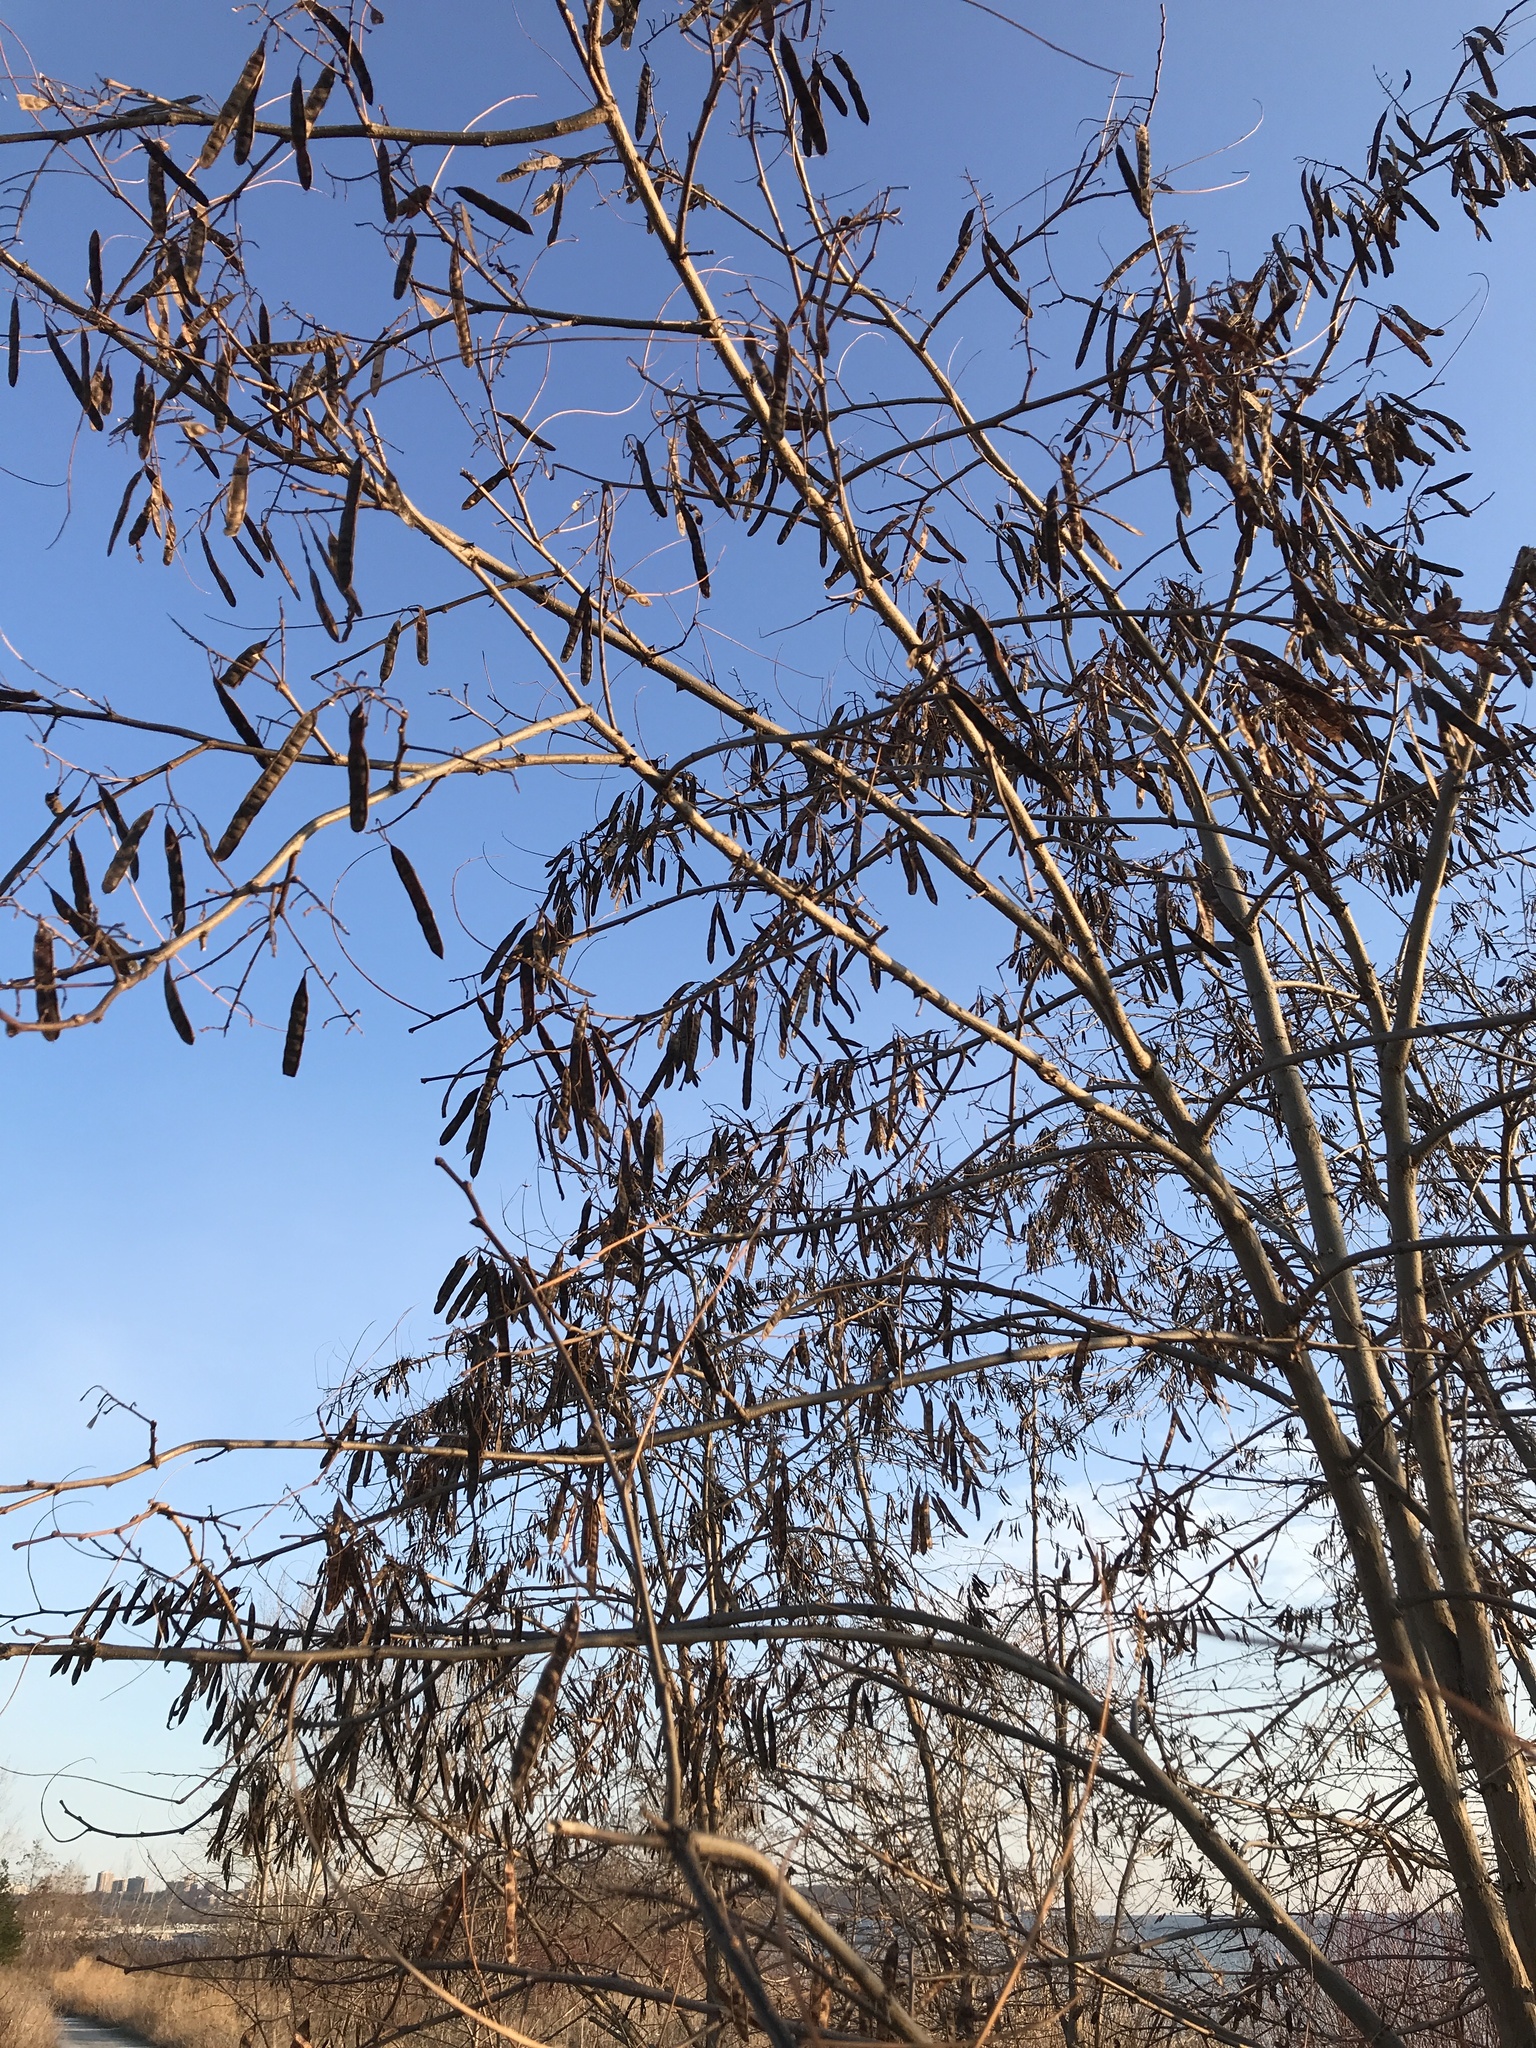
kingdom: Plantae
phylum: Tracheophyta
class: Magnoliopsida
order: Fabales
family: Fabaceae
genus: Robinia
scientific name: Robinia pseudoacacia
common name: Black locust
